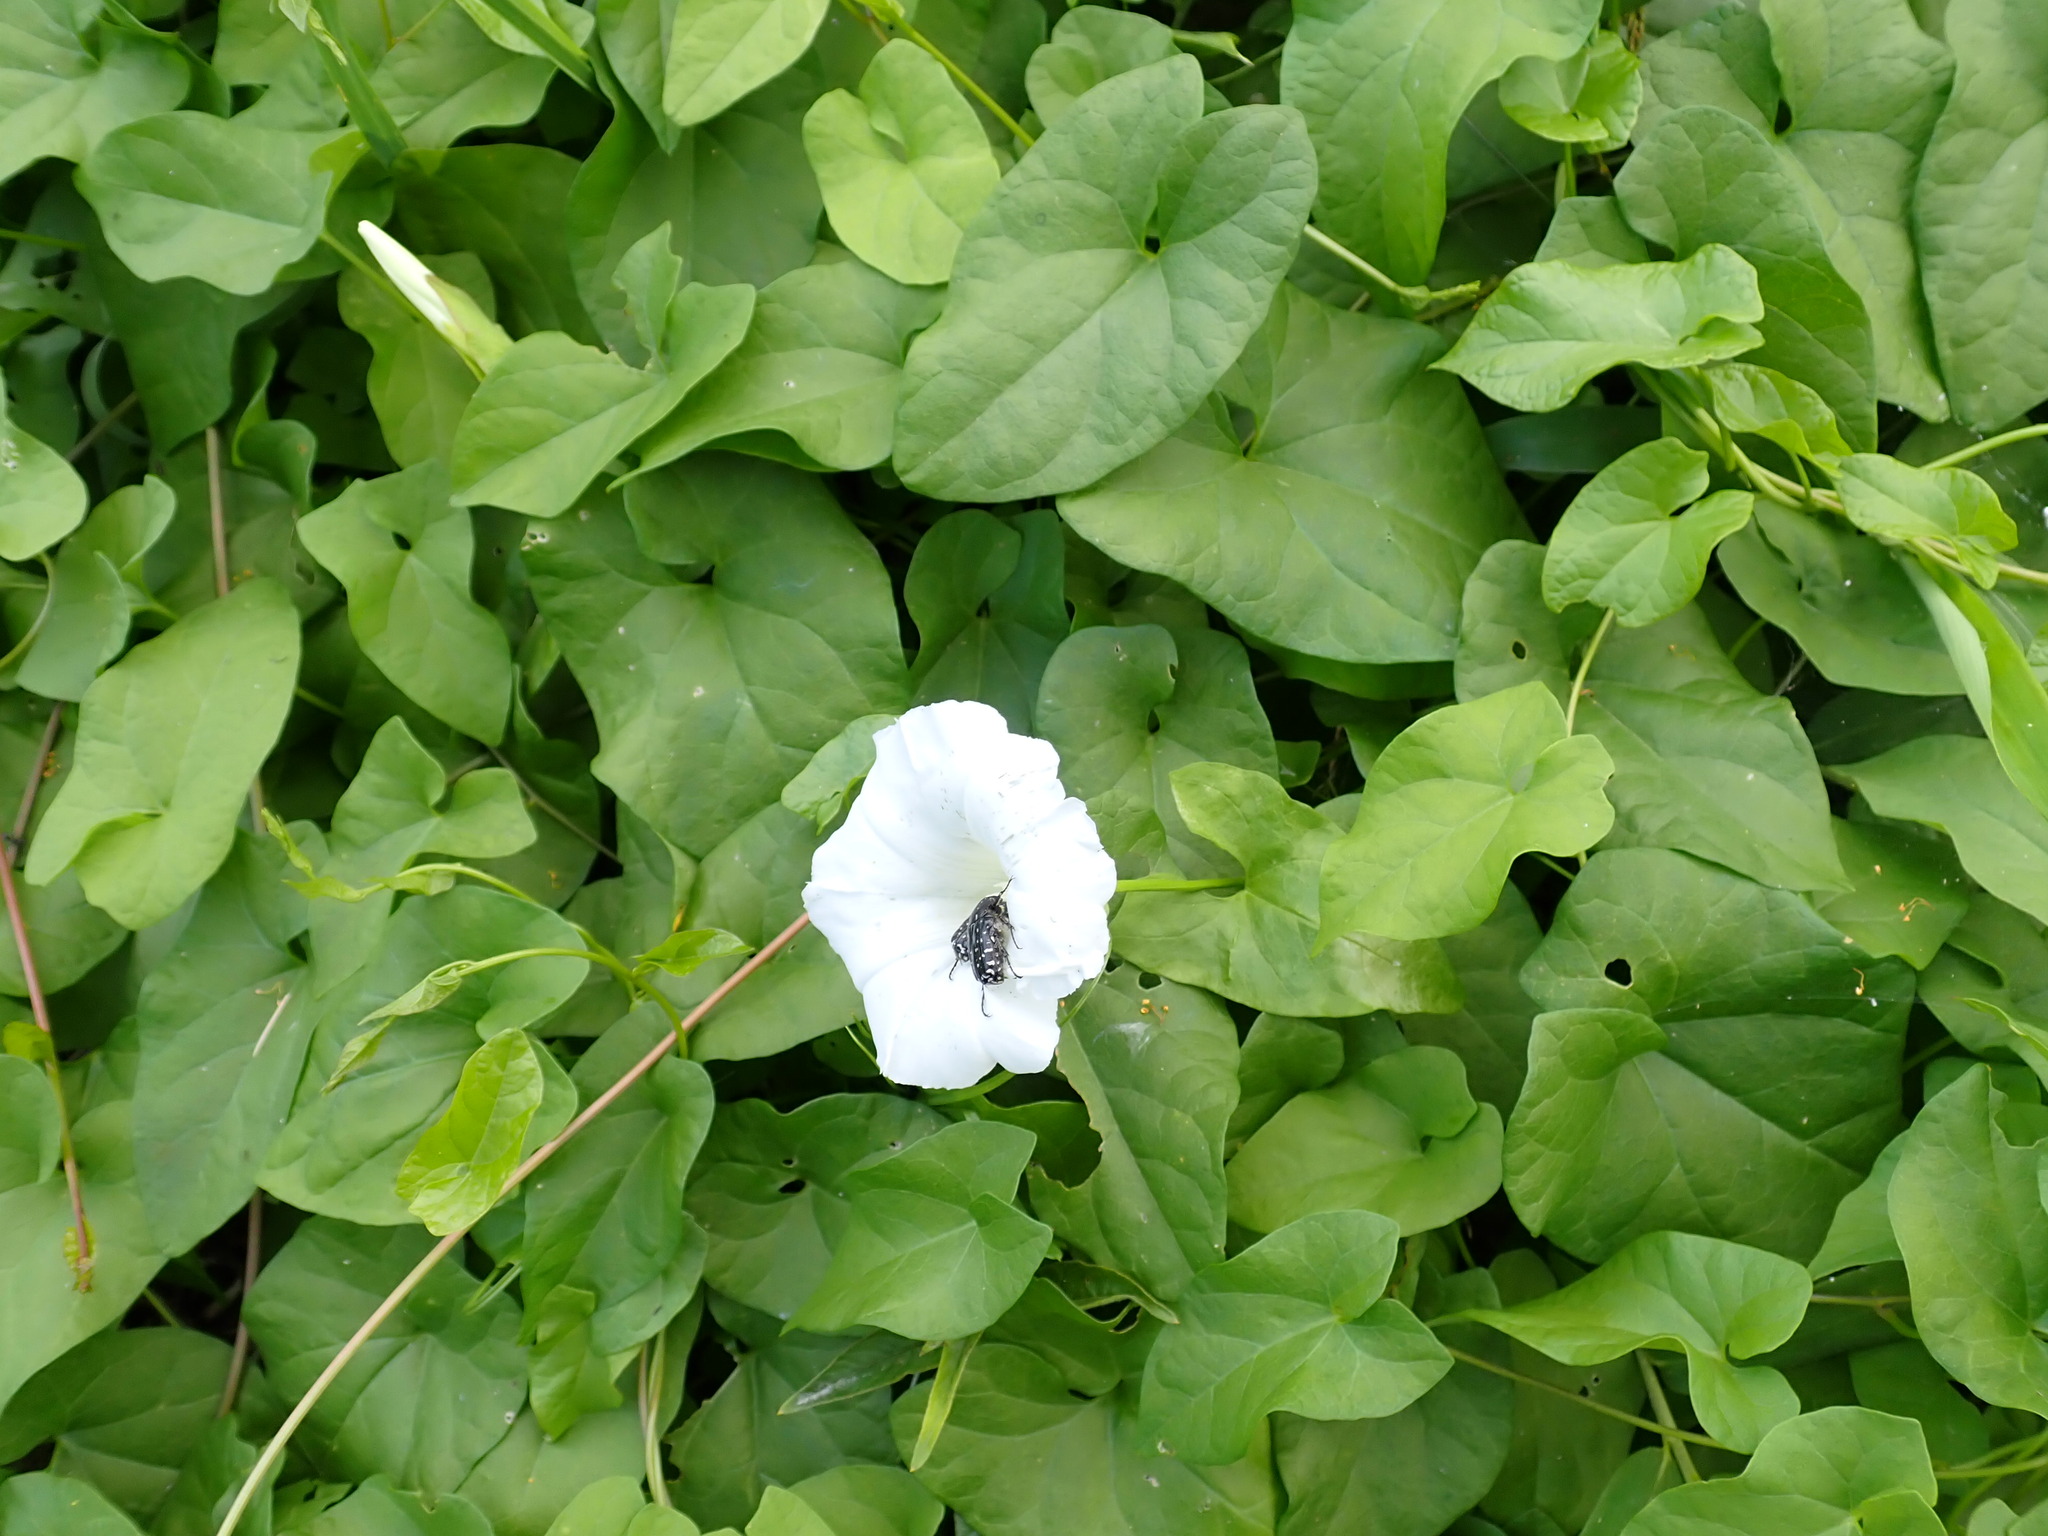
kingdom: Plantae
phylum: Tracheophyta
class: Magnoliopsida
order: Solanales
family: Convolvulaceae
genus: Calystegia
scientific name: Calystegia sepium
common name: Hedge bindweed
